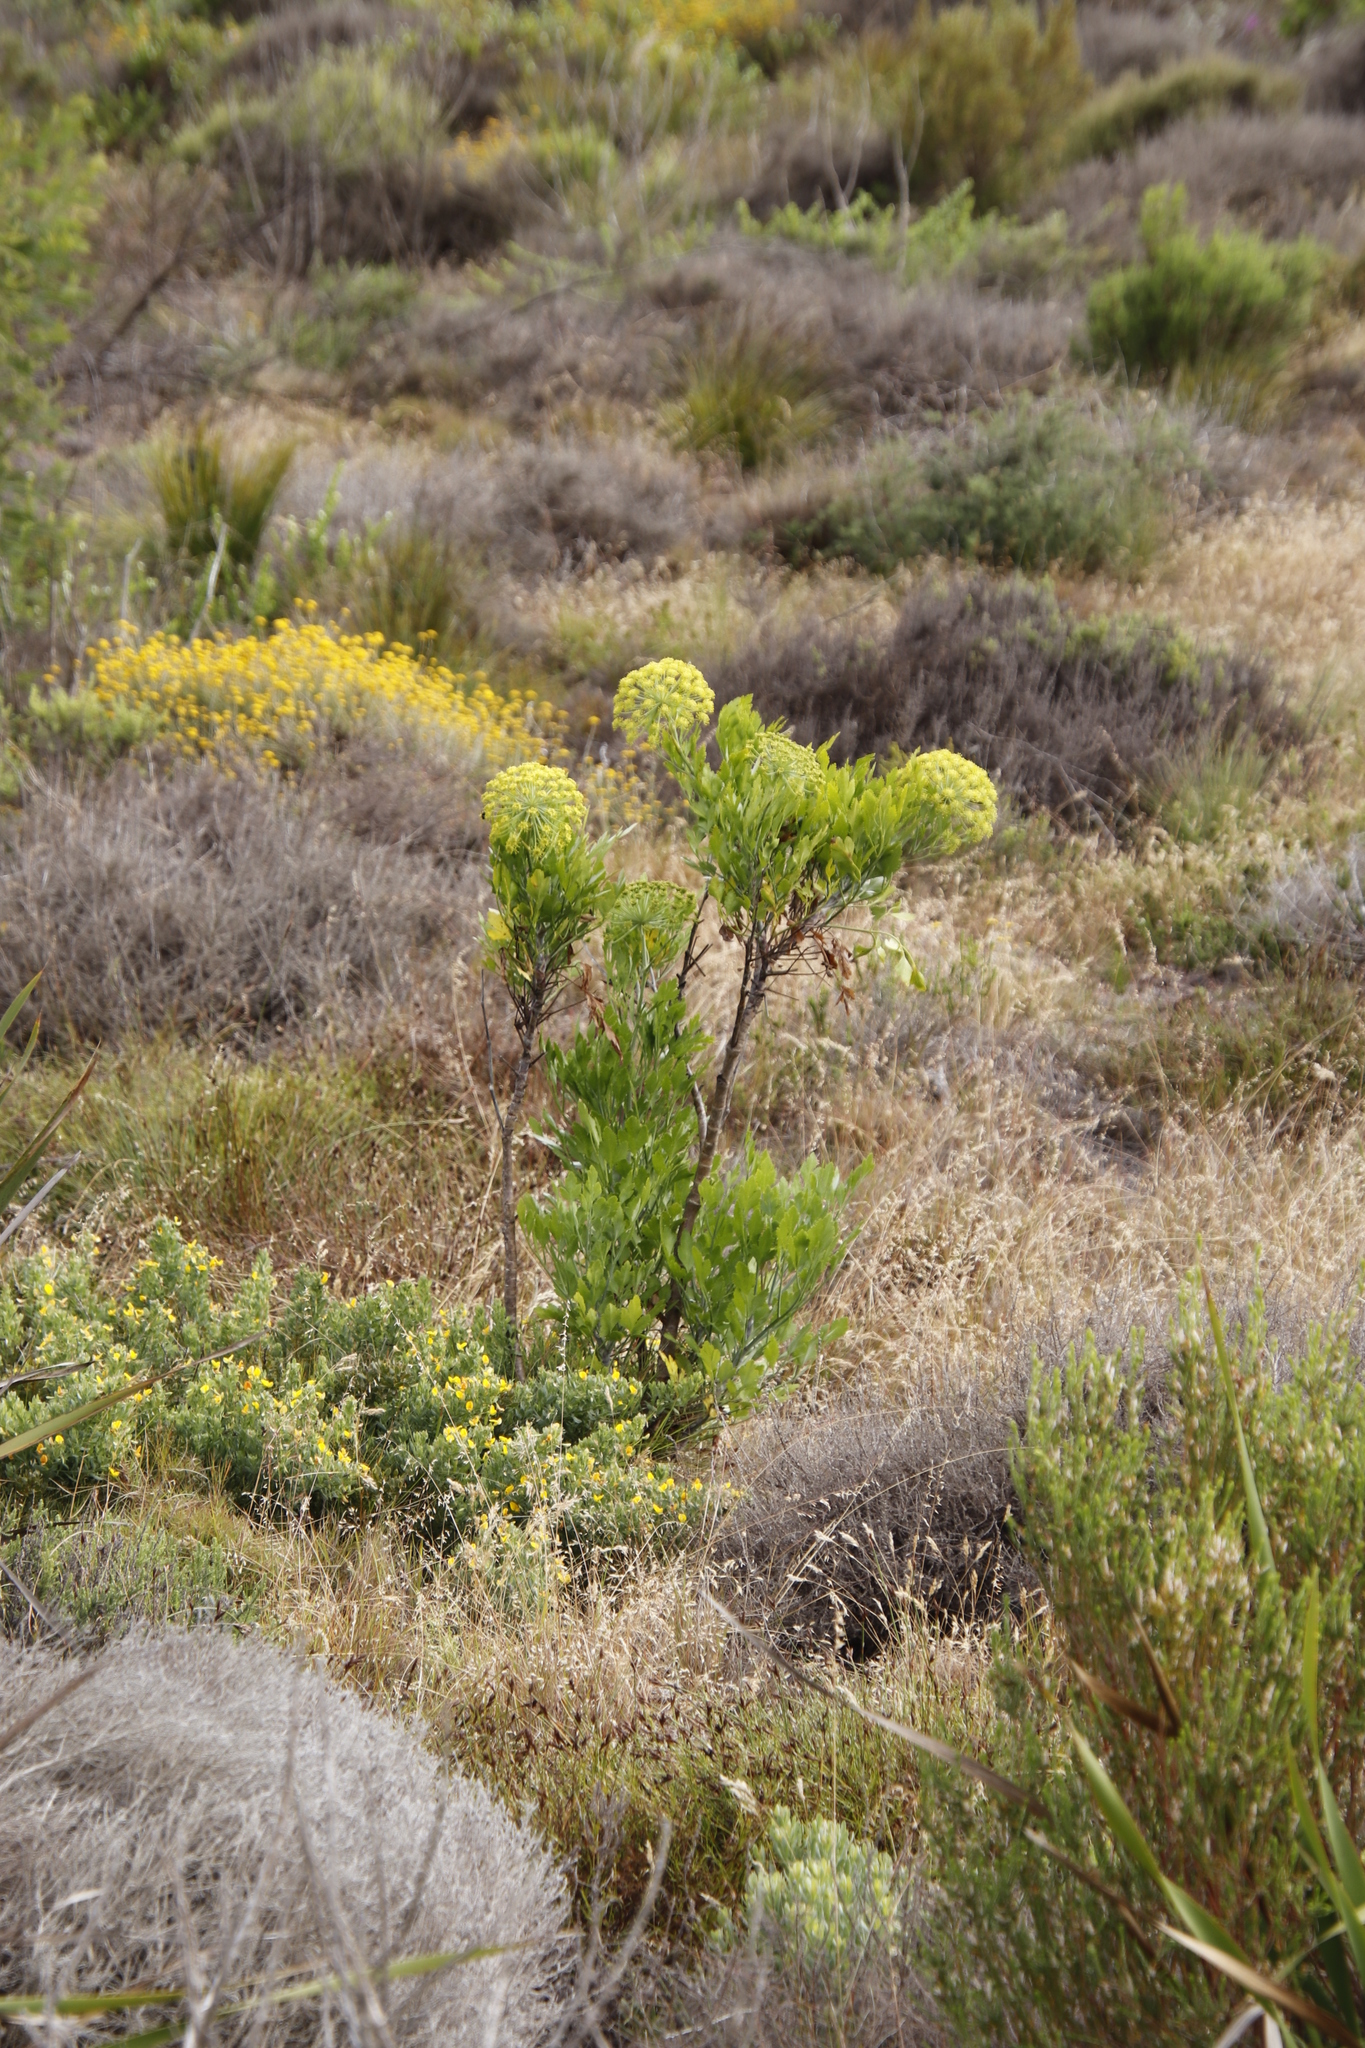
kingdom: Plantae
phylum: Tracheophyta
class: Magnoliopsida
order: Apiales
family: Apiaceae
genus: Notobubon
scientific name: Notobubon galbanum
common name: Blisterbush
